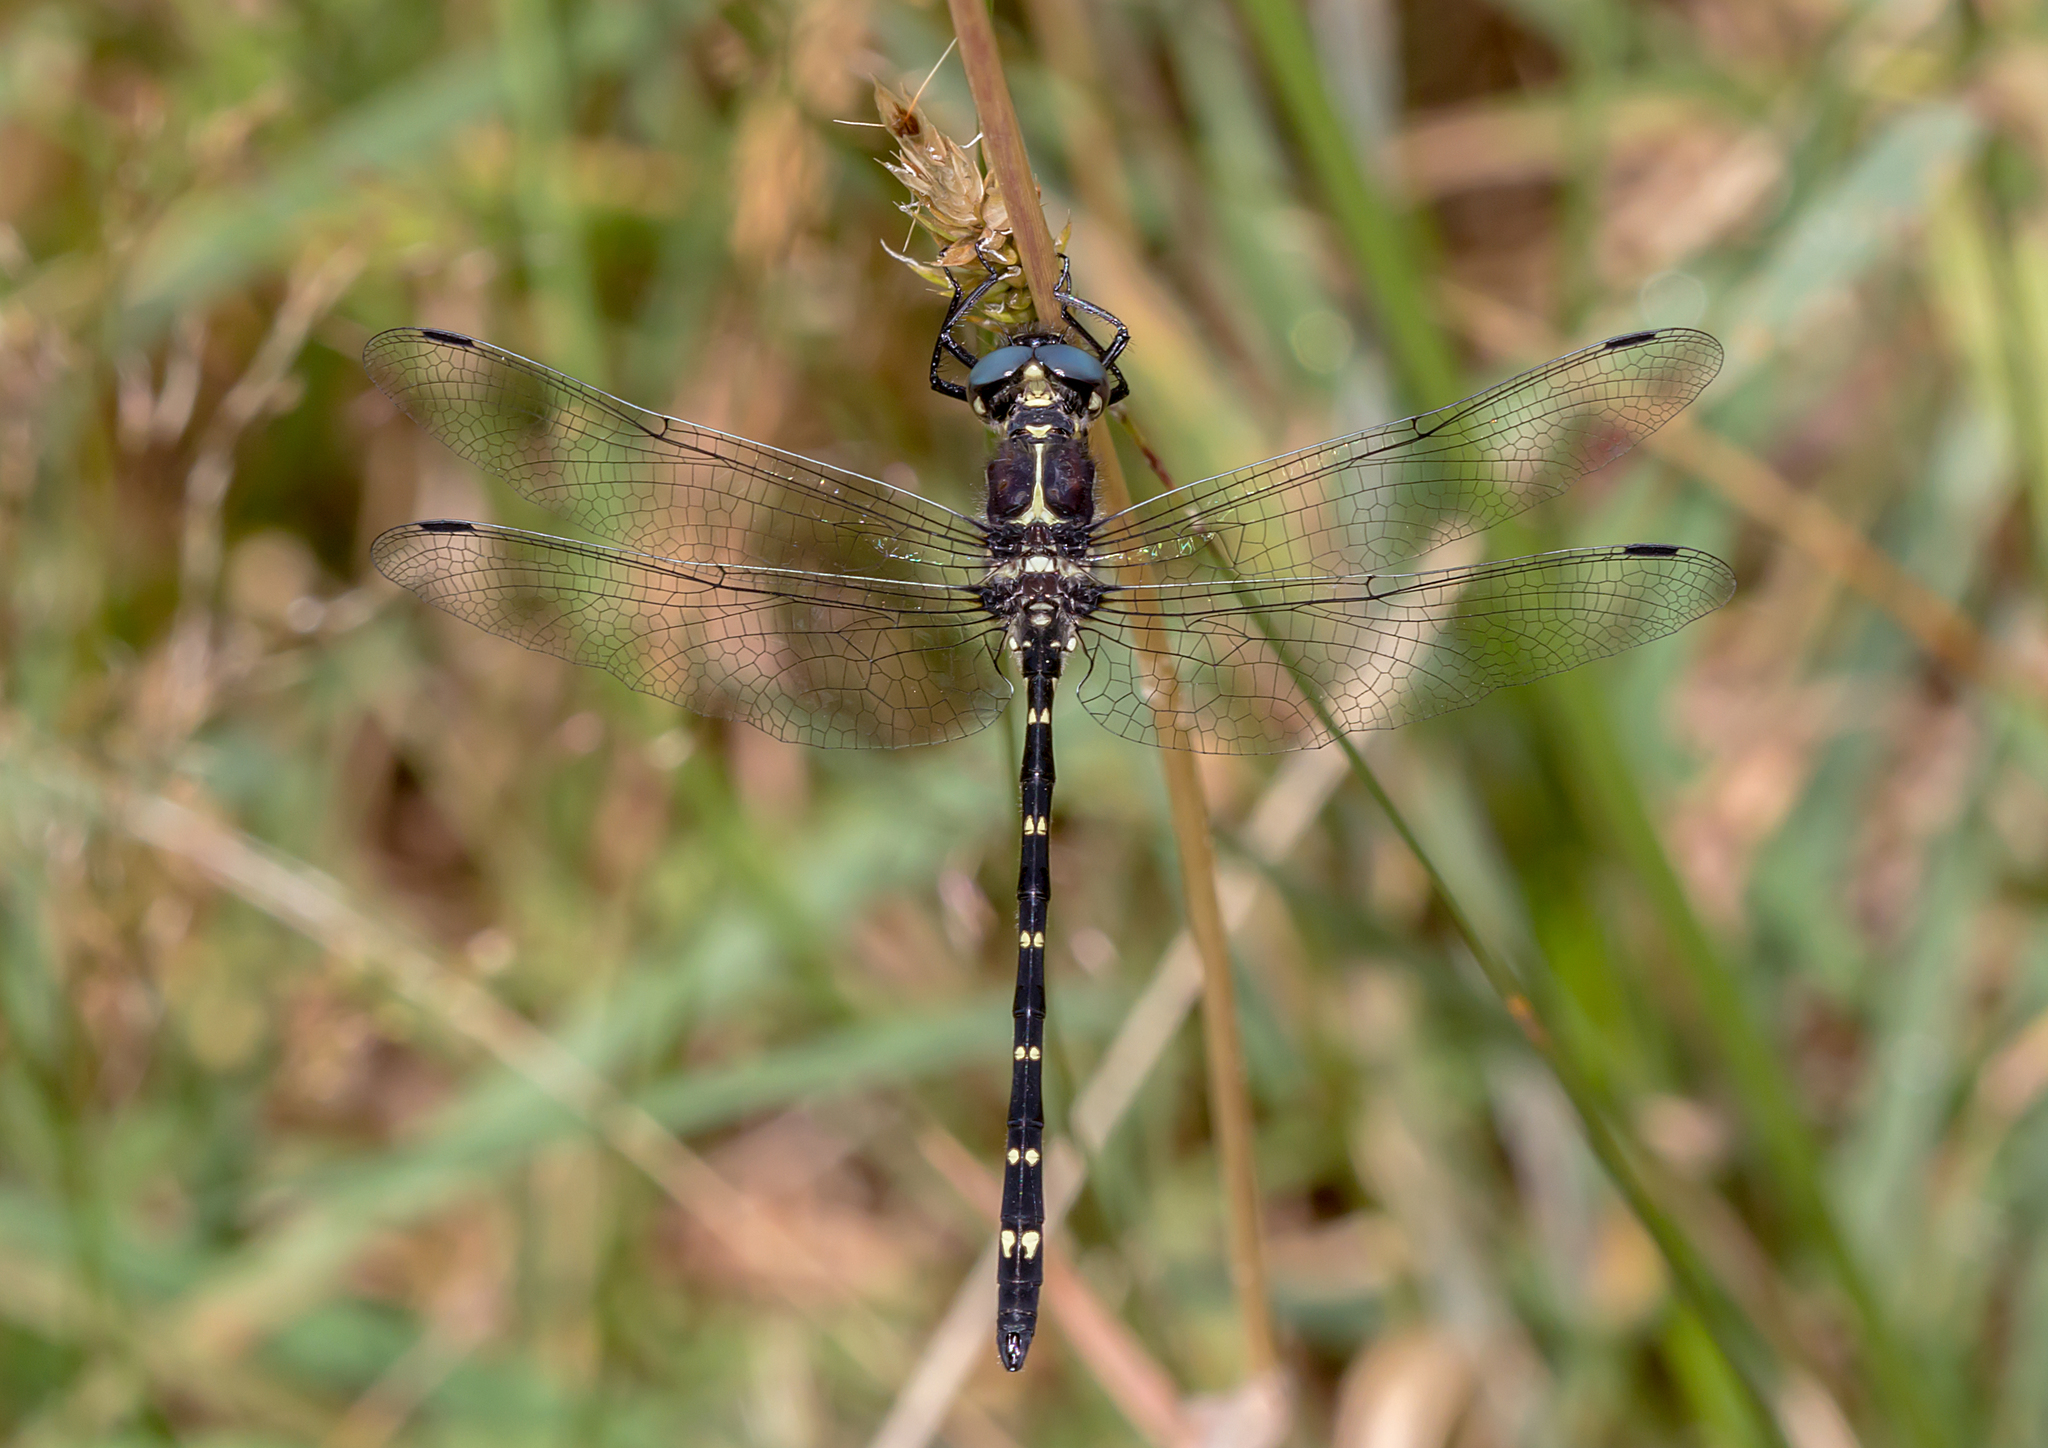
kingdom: Animalia
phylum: Arthropoda
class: Insecta
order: Odonata
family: Synthemistidae
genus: Eusynthemis
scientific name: Eusynthemis guttata
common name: Southern tigertail
